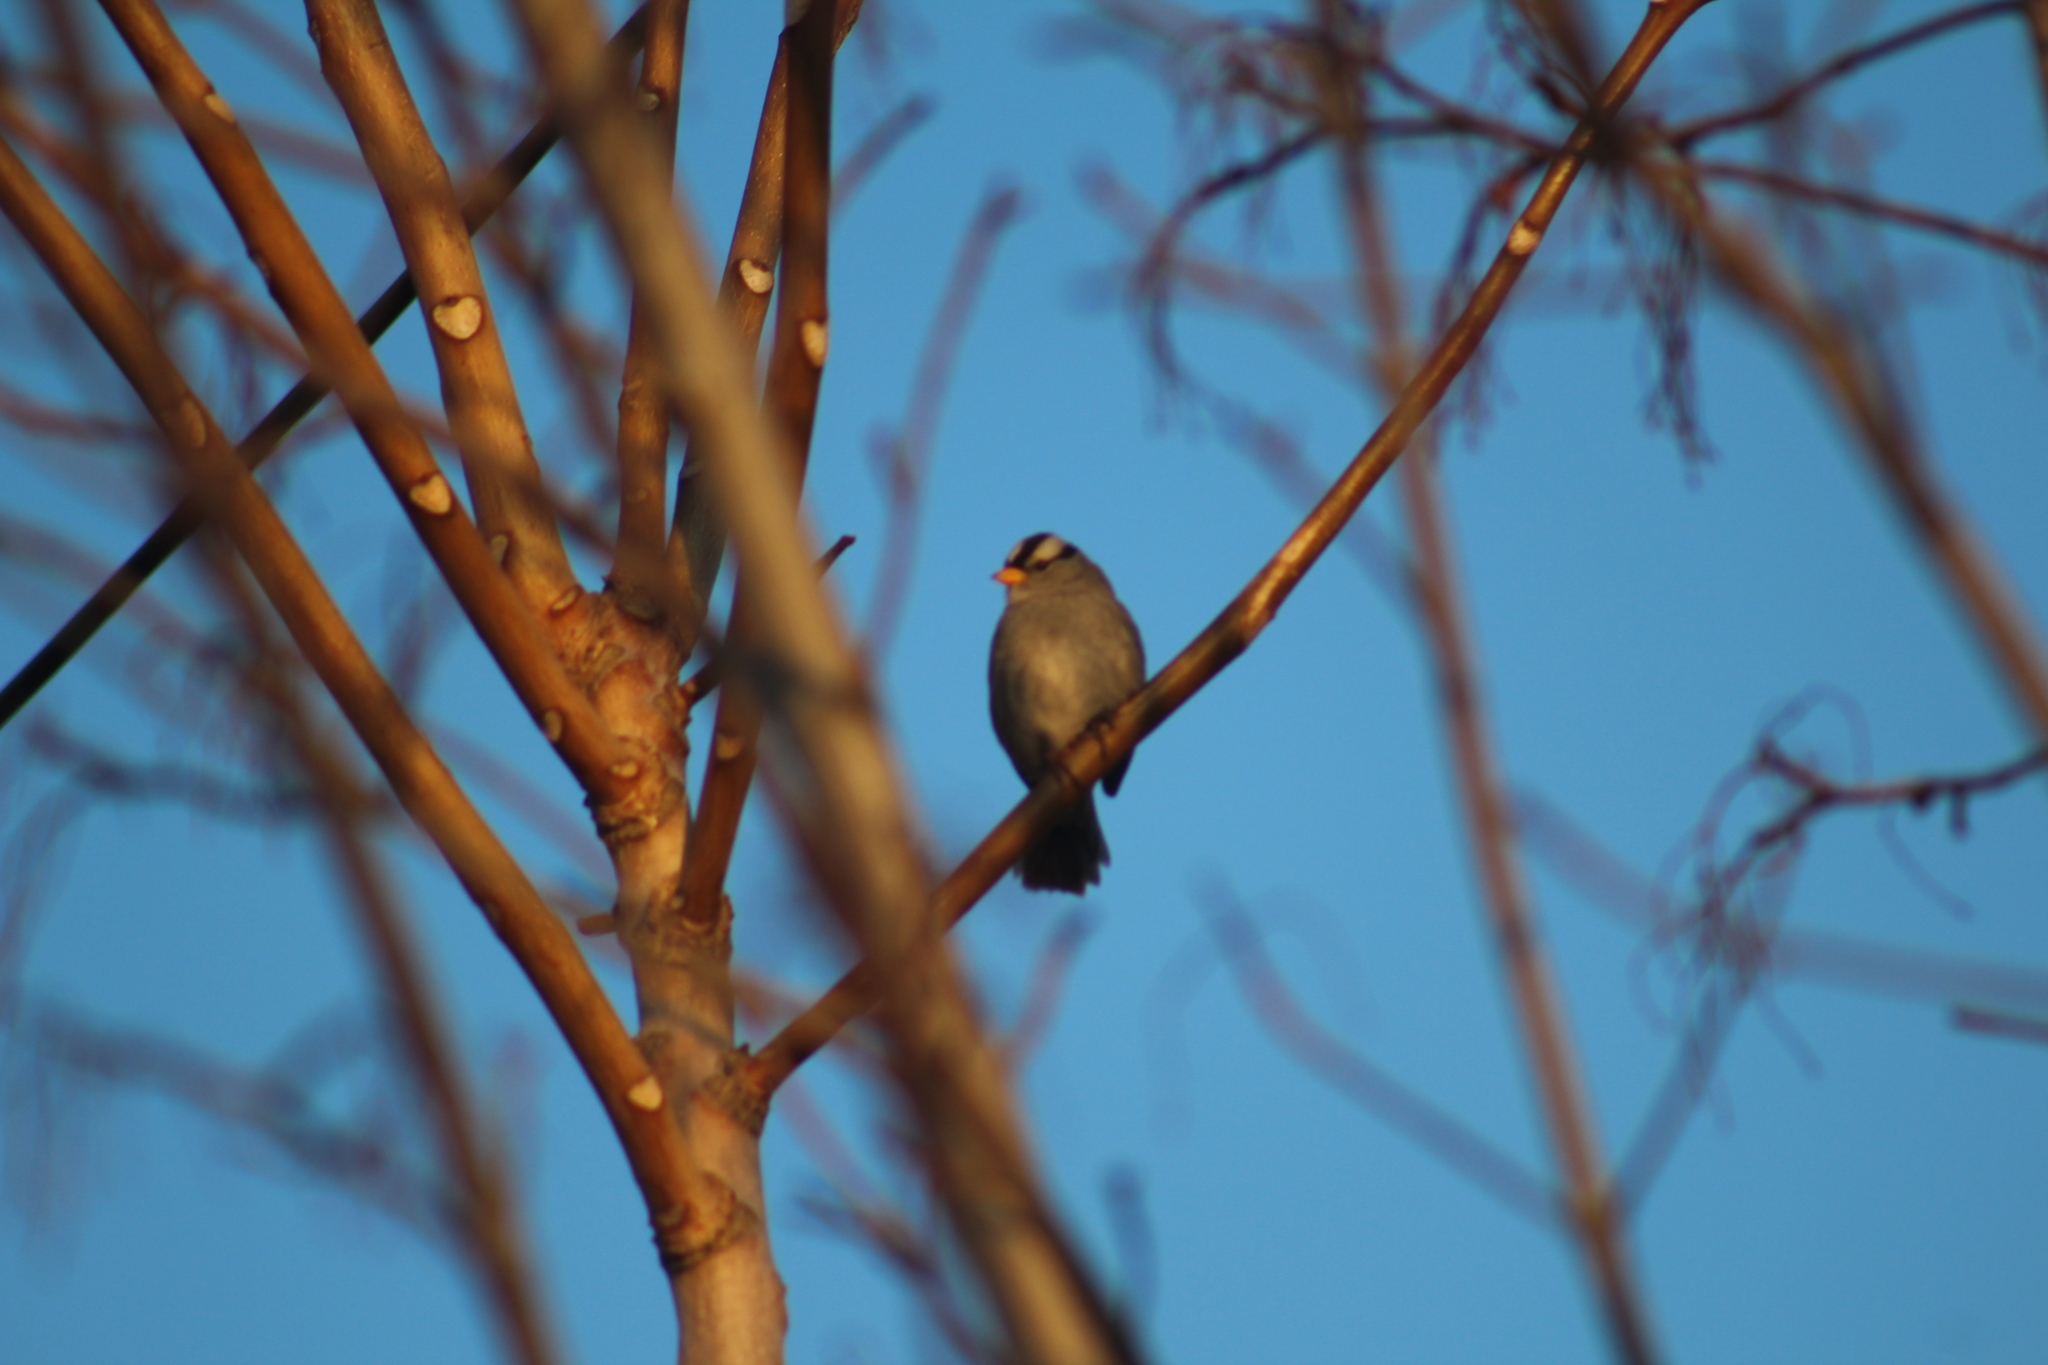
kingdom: Animalia
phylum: Chordata
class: Aves
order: Passeriformes
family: Passerellidae
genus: Zonotrichia
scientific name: Zonotrichia leucophrys
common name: White-crowned sparrow
